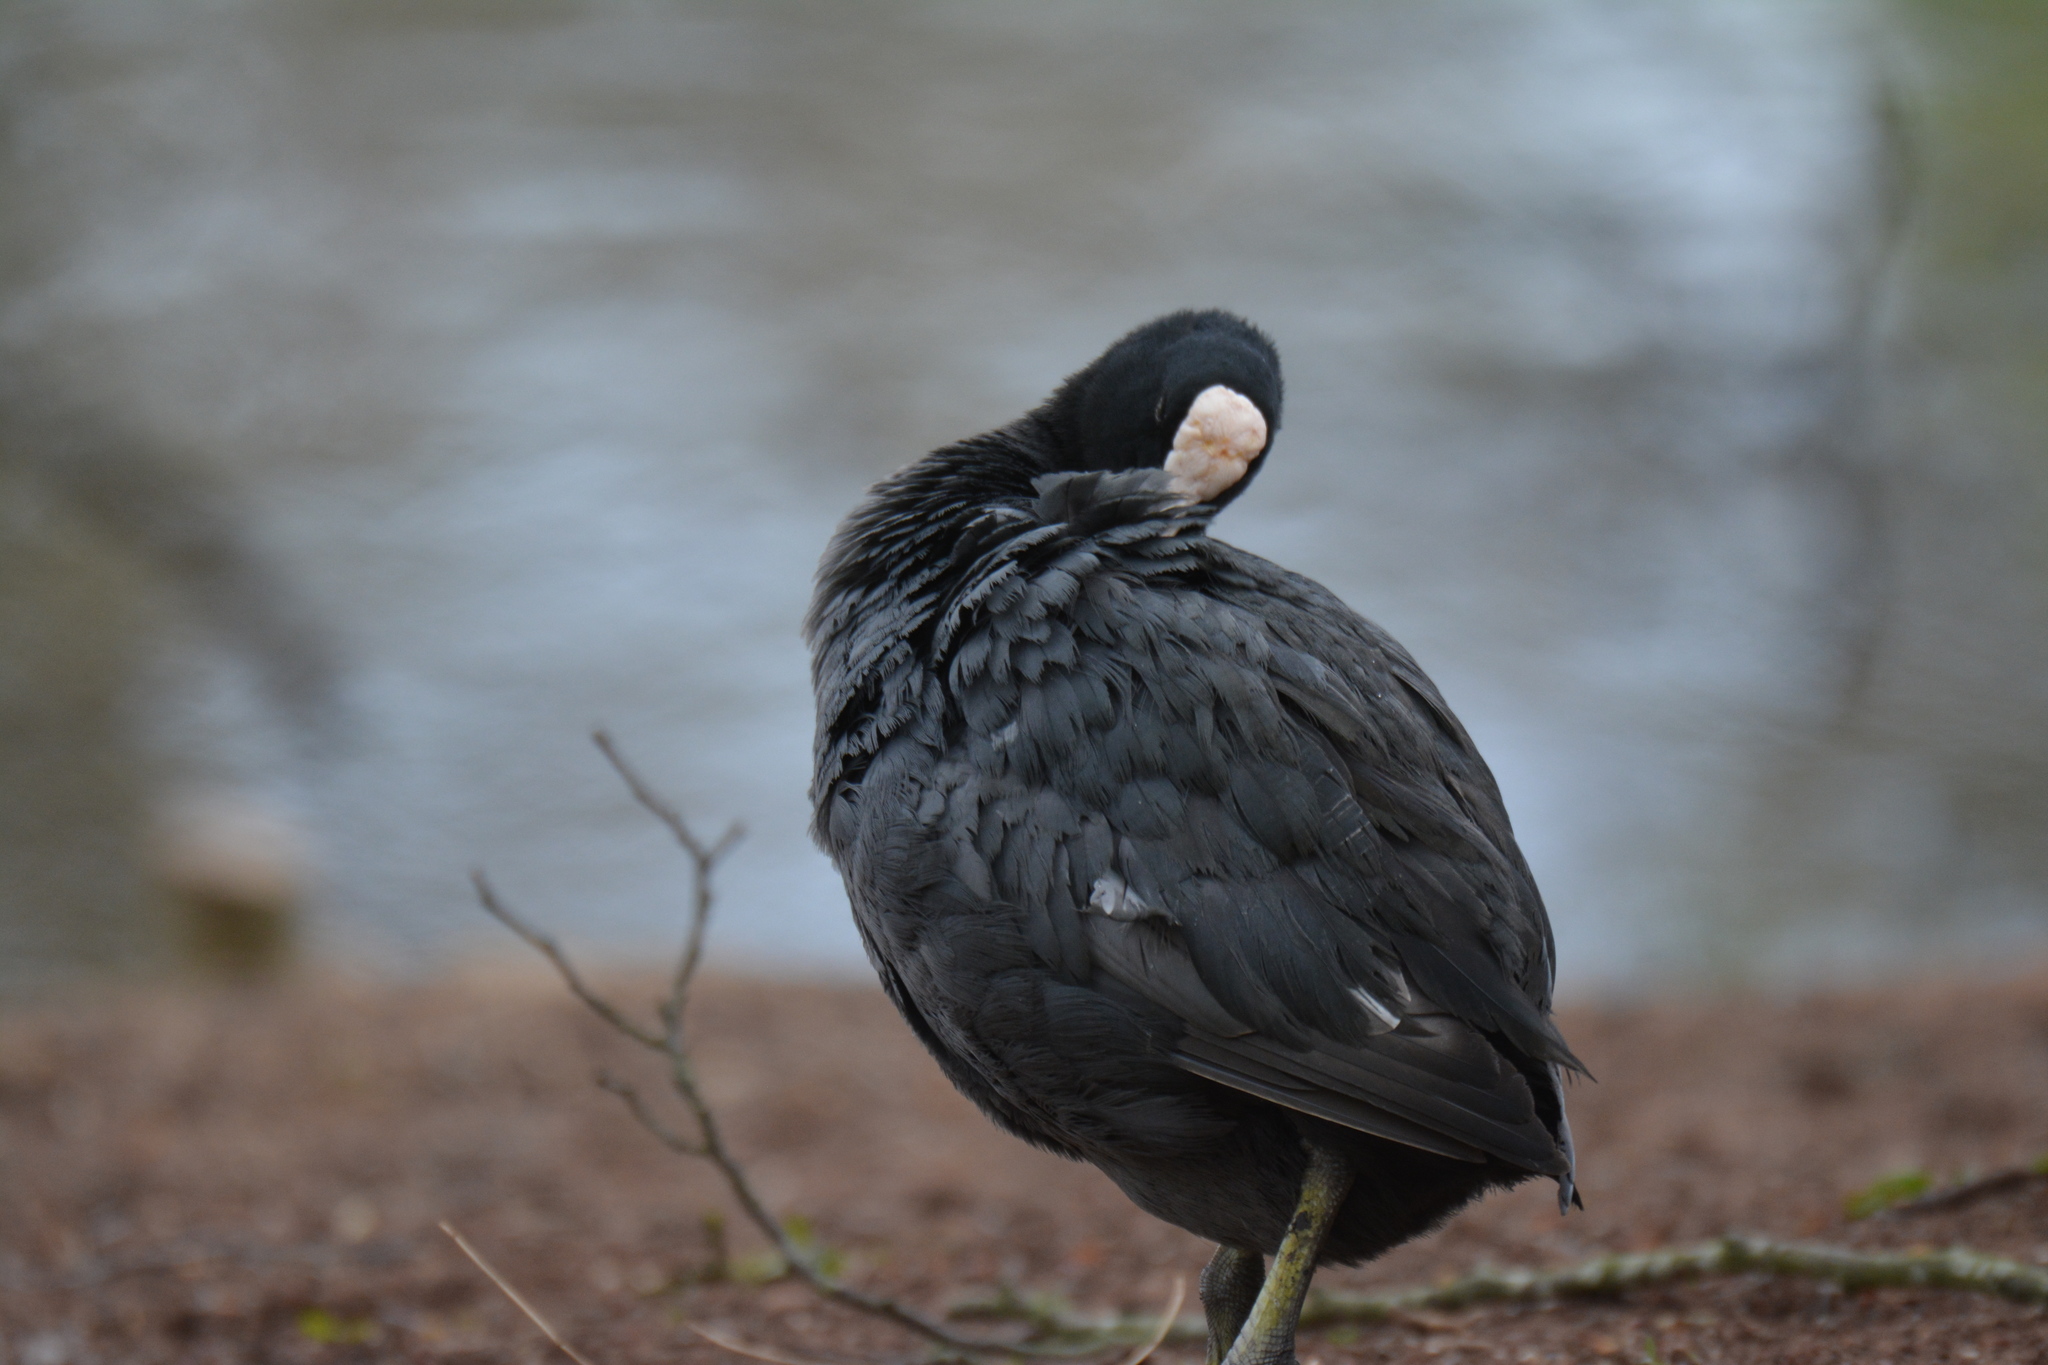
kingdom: Animalia
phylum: Chordata
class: Aves
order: Gruiformes
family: Rallidae
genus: Fulica
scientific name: Fulica atra
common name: Eurasian coot
